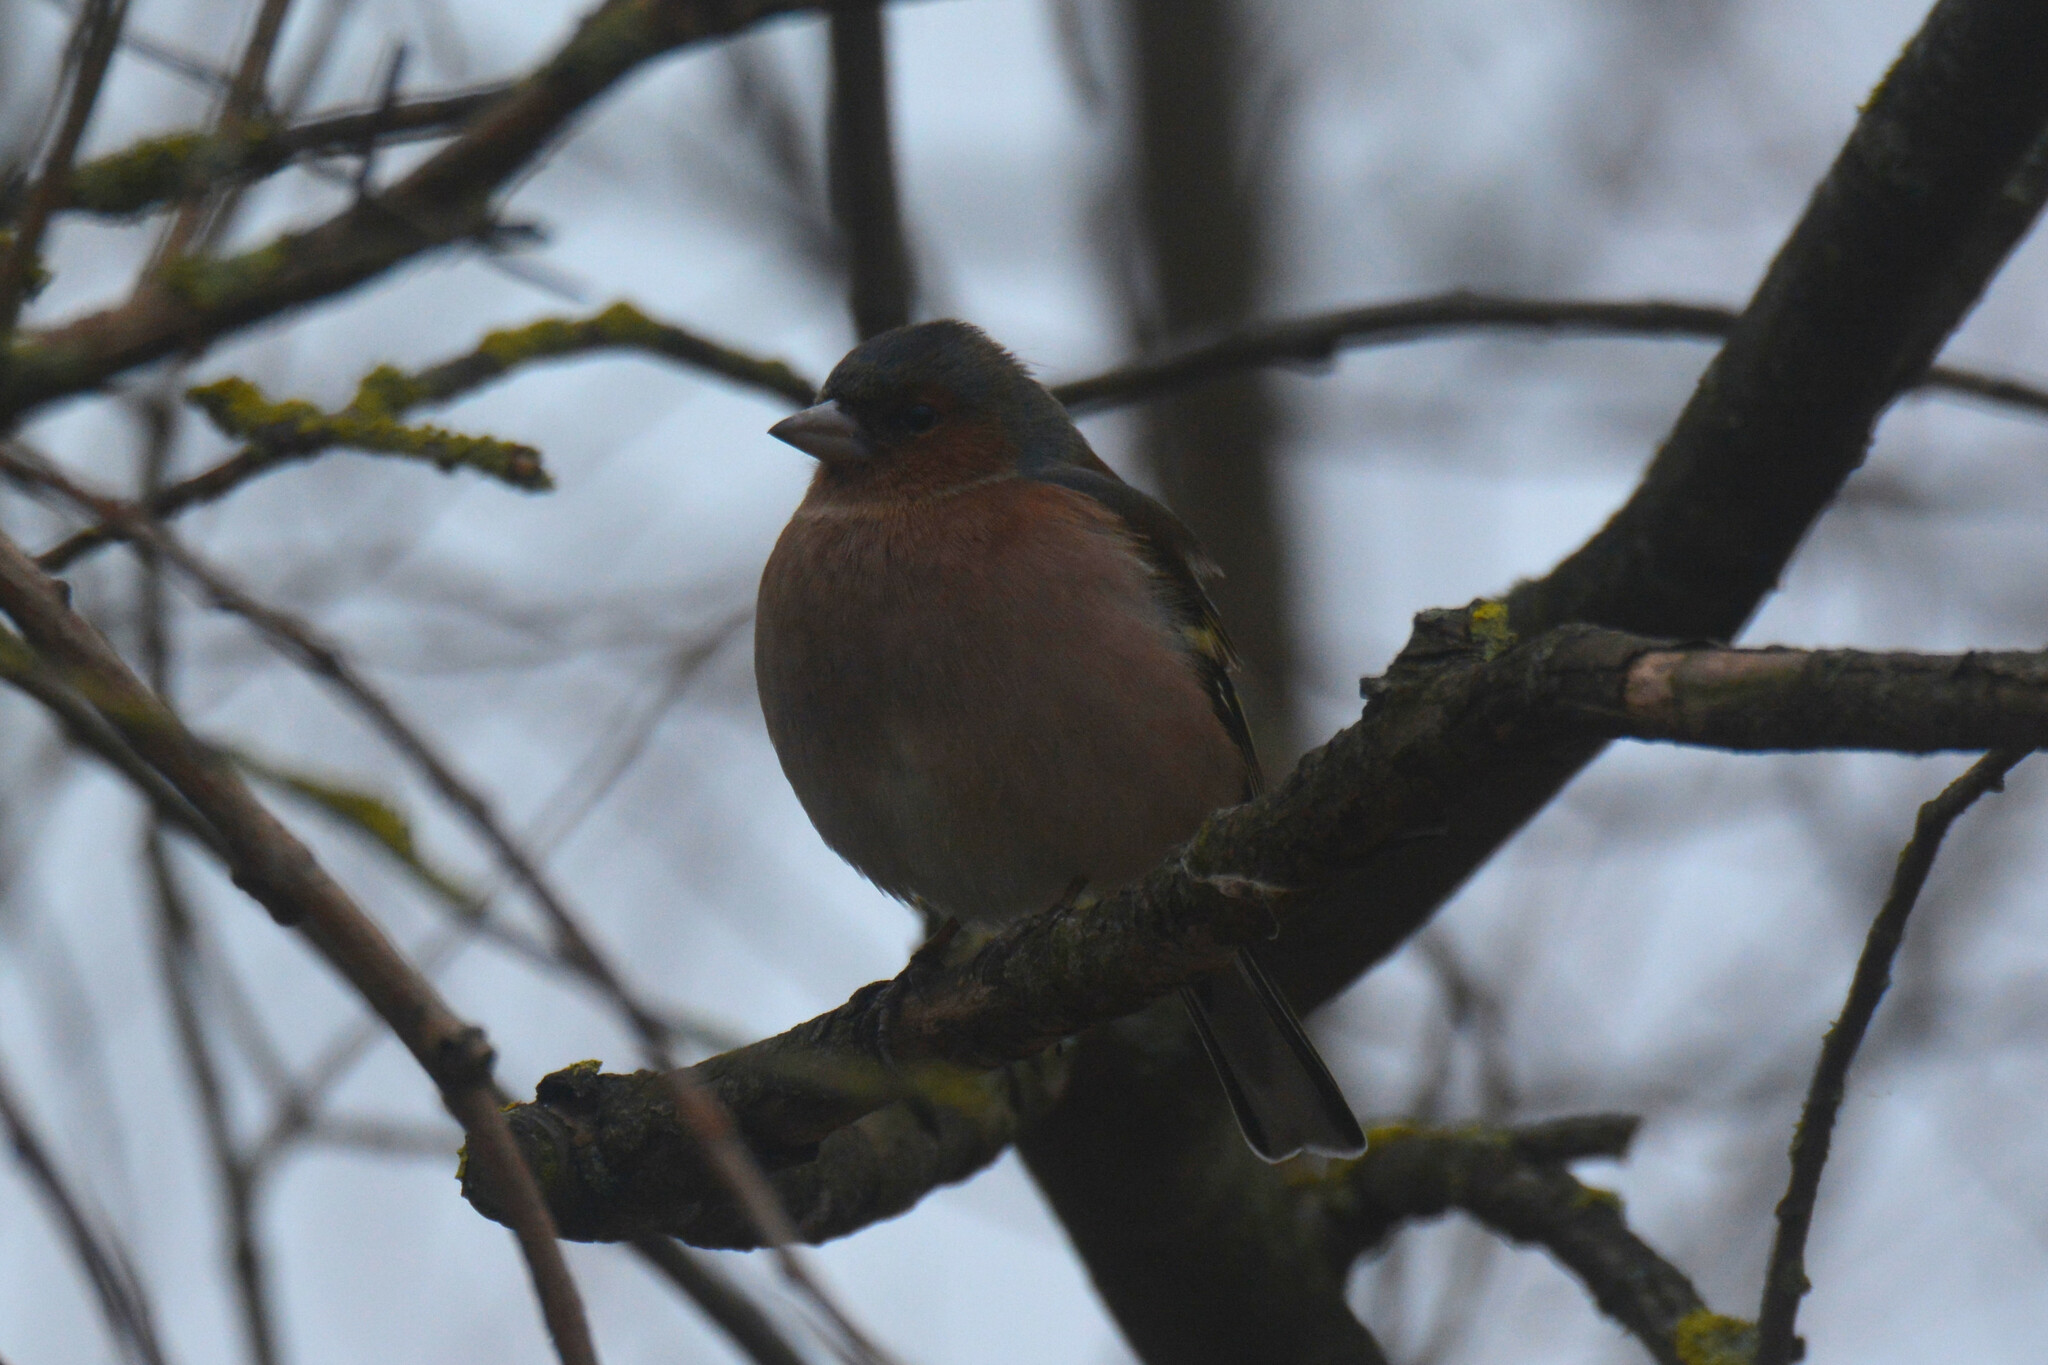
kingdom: Animalia
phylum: Chordata
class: Aves
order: Passeriformes
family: Fringillidae
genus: Fringilla
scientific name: Fringilla coelebs
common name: Common chaffinch
